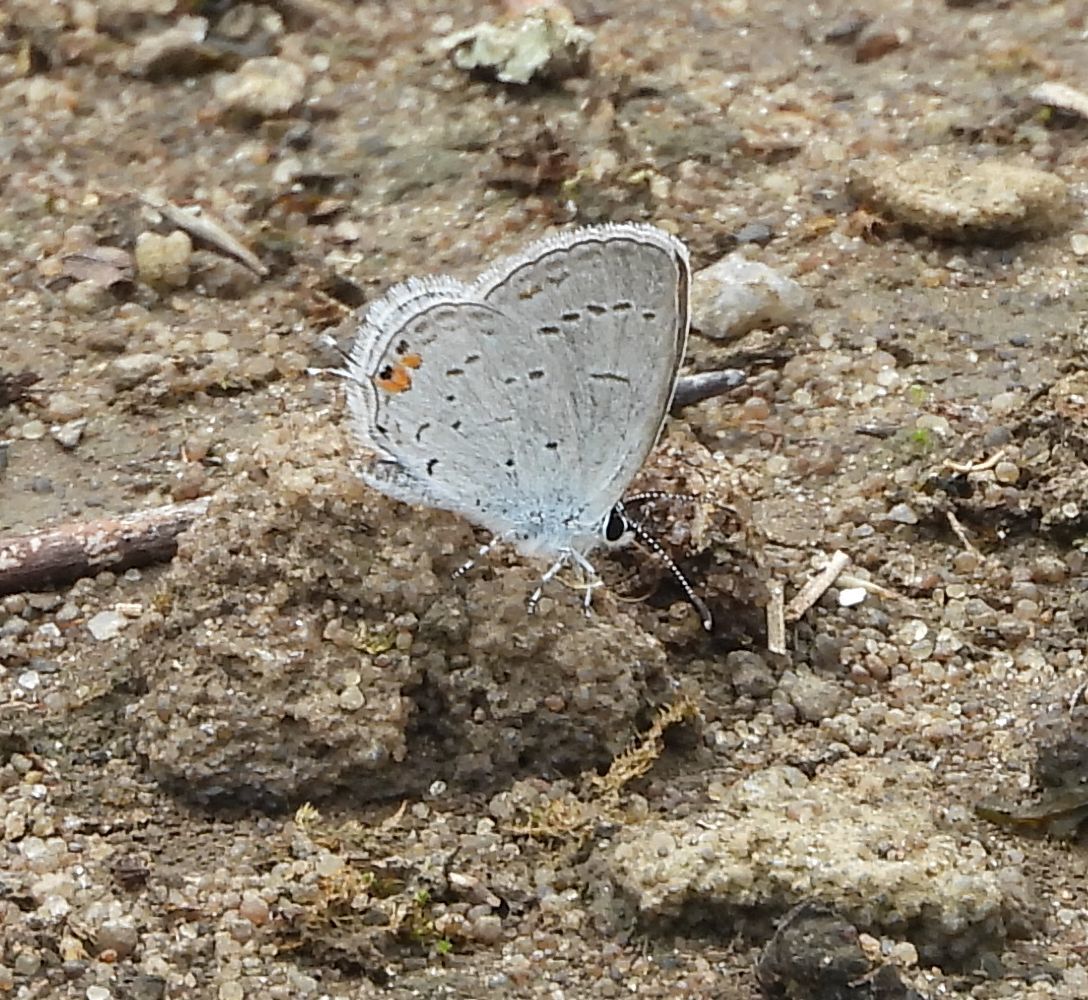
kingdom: Animalia
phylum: Arthropoda
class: Insecta
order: Lepidoptera
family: Lycaenidae
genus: Elkalyce
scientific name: Elkalyce comyntas
